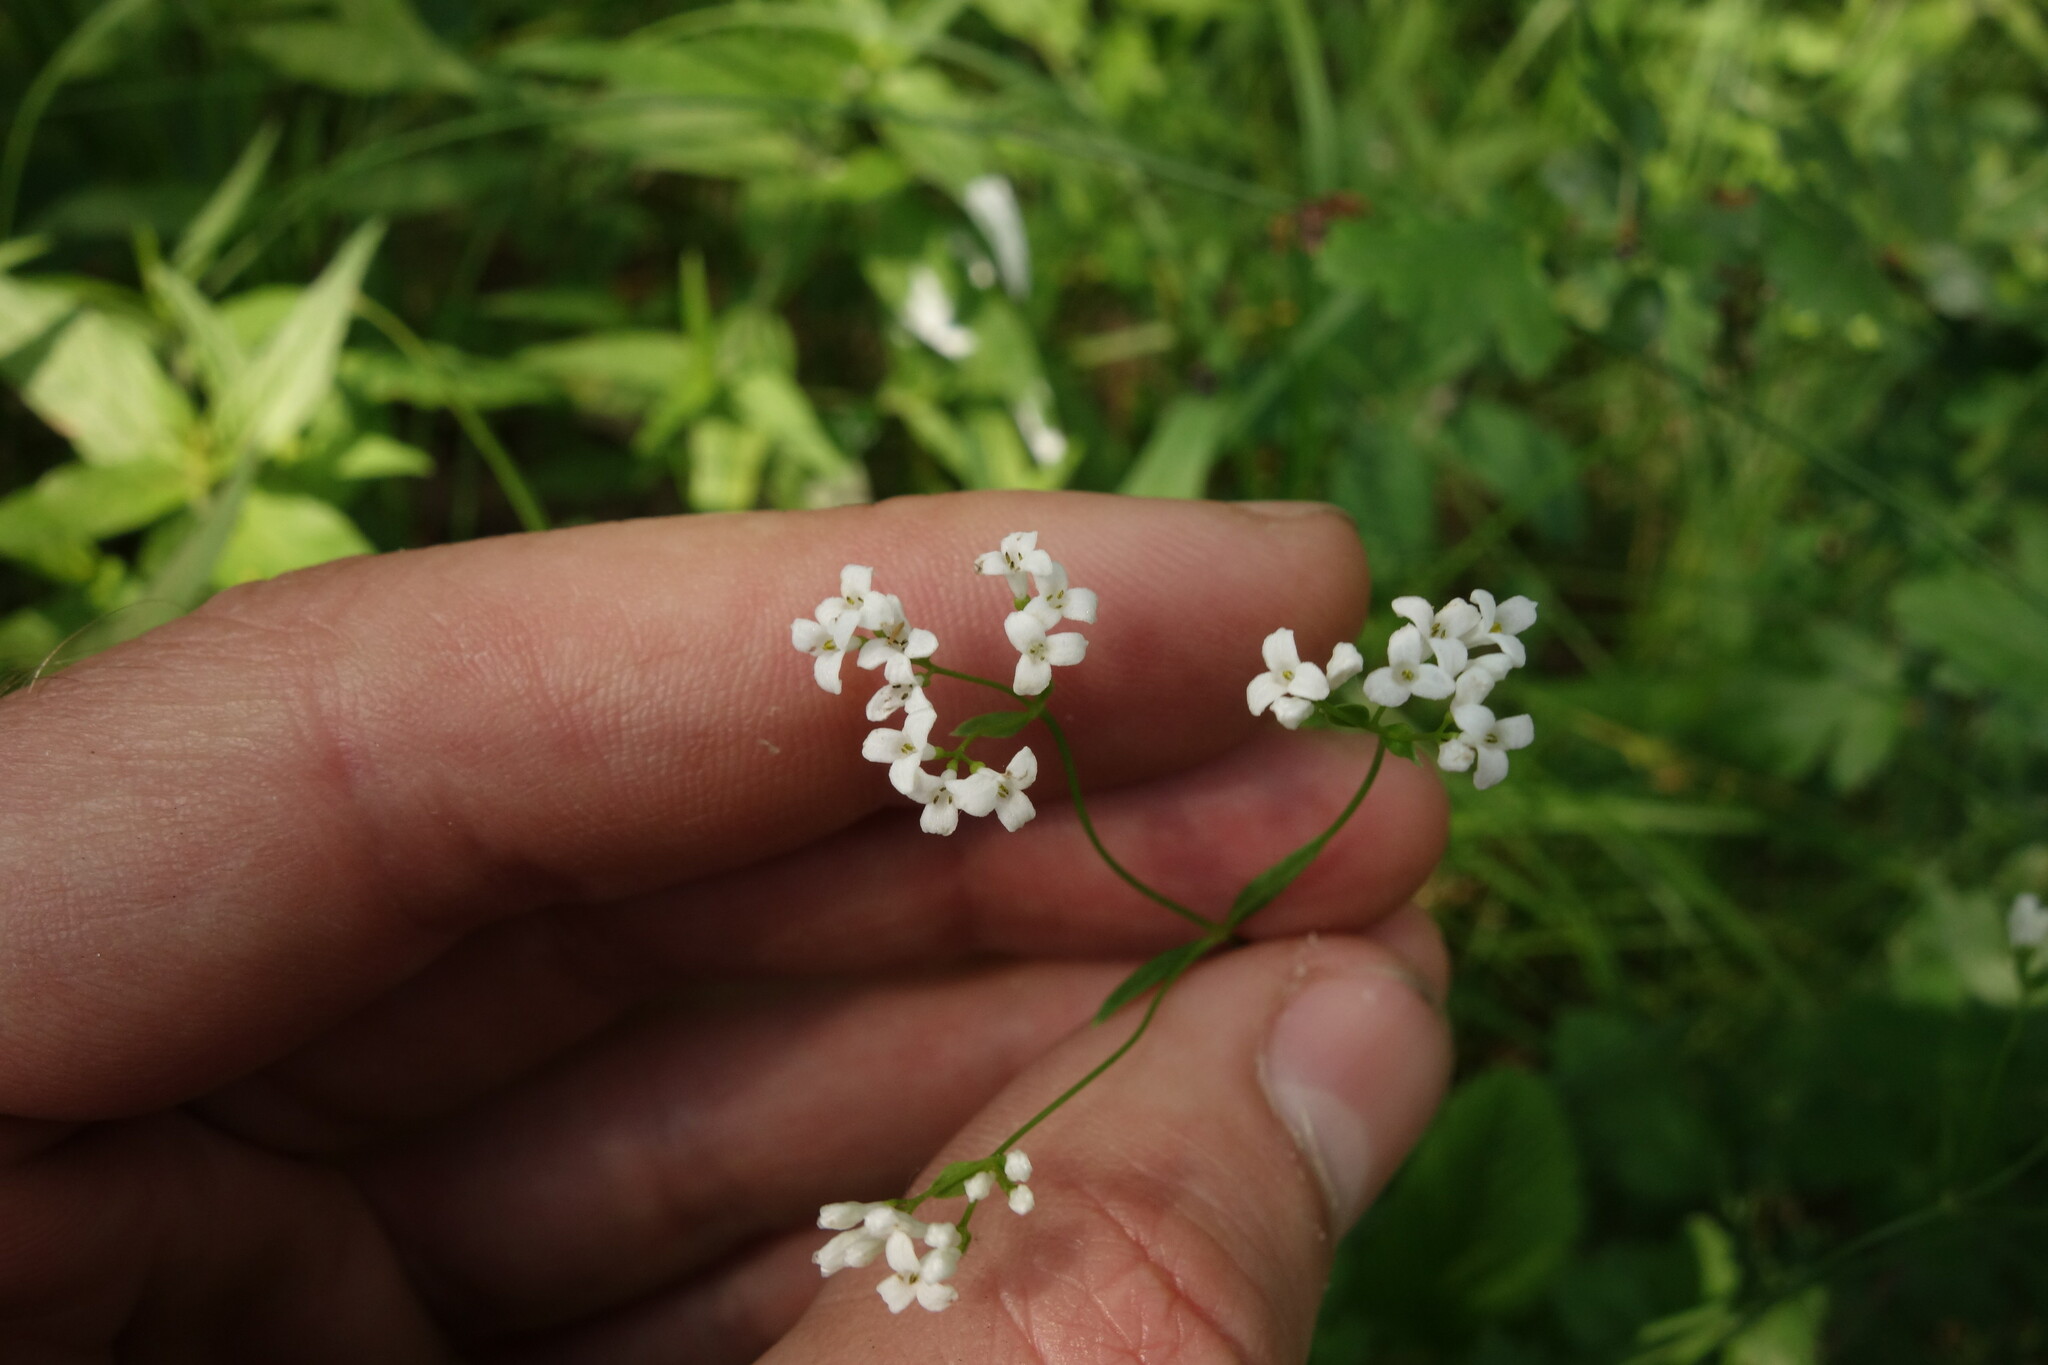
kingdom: Plantae
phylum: Tracheophyta
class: Magnoliopsida
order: Gentianales
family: Rubiaceae
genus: Asperula
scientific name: Asperula tinctoria
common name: Dyer's woodruff
